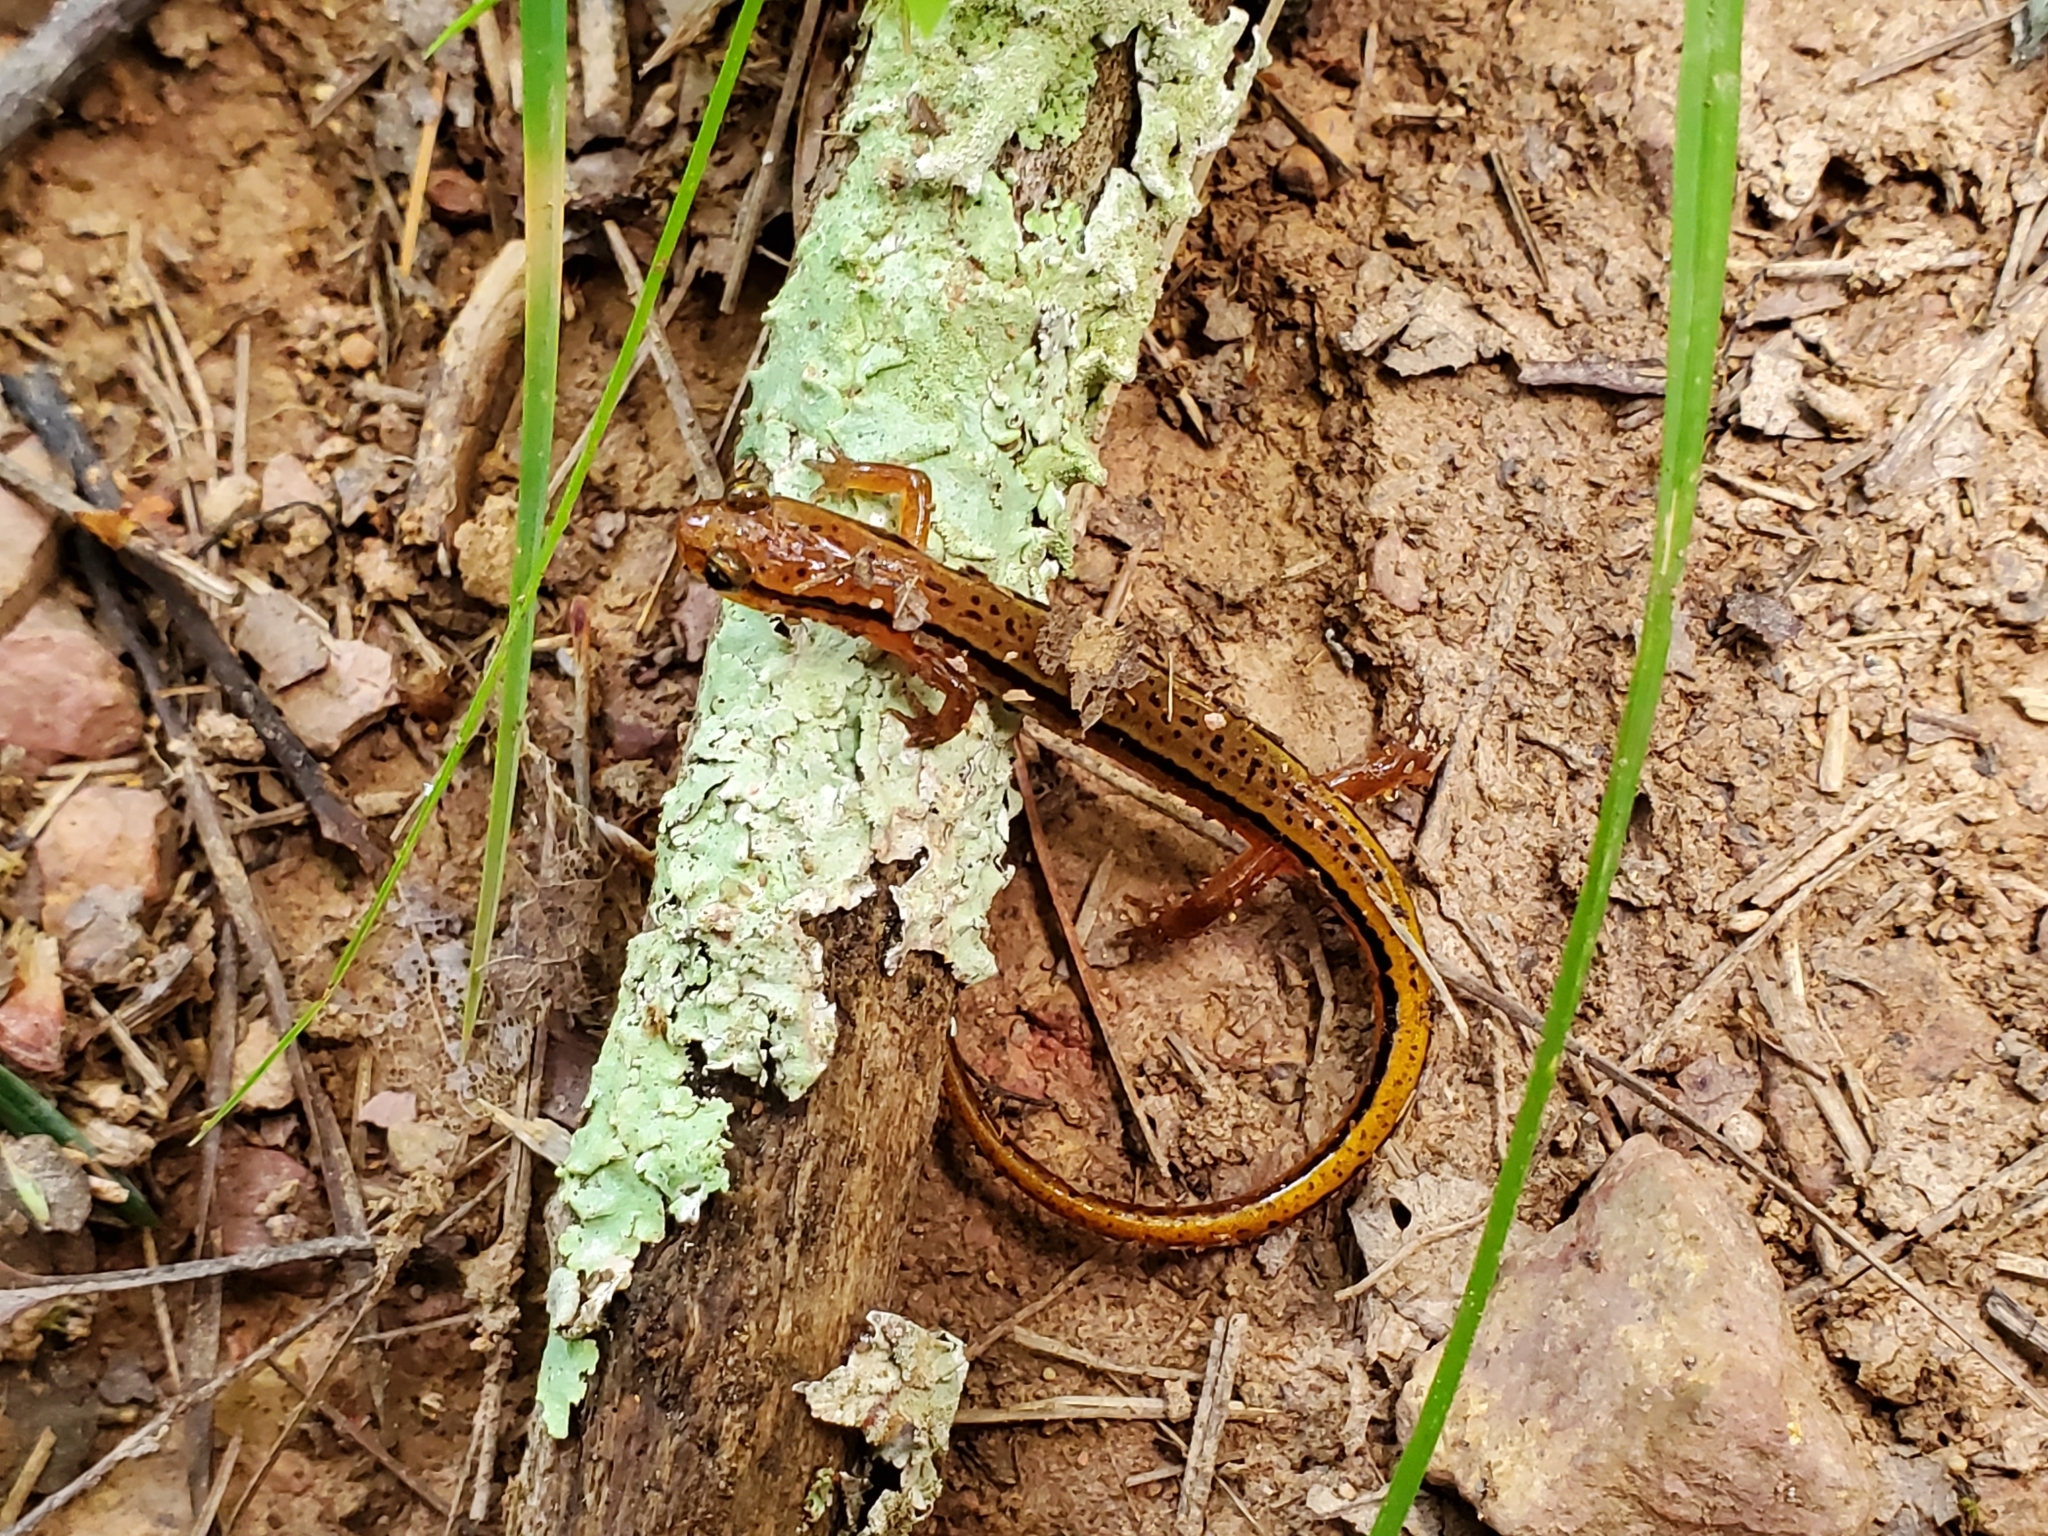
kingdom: Animalia
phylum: Chordata
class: Amphibia
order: Caudata
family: Plethodontidae
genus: Eurycea
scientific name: Eurycea wilderae
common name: Blue ridge two-lined salamander
